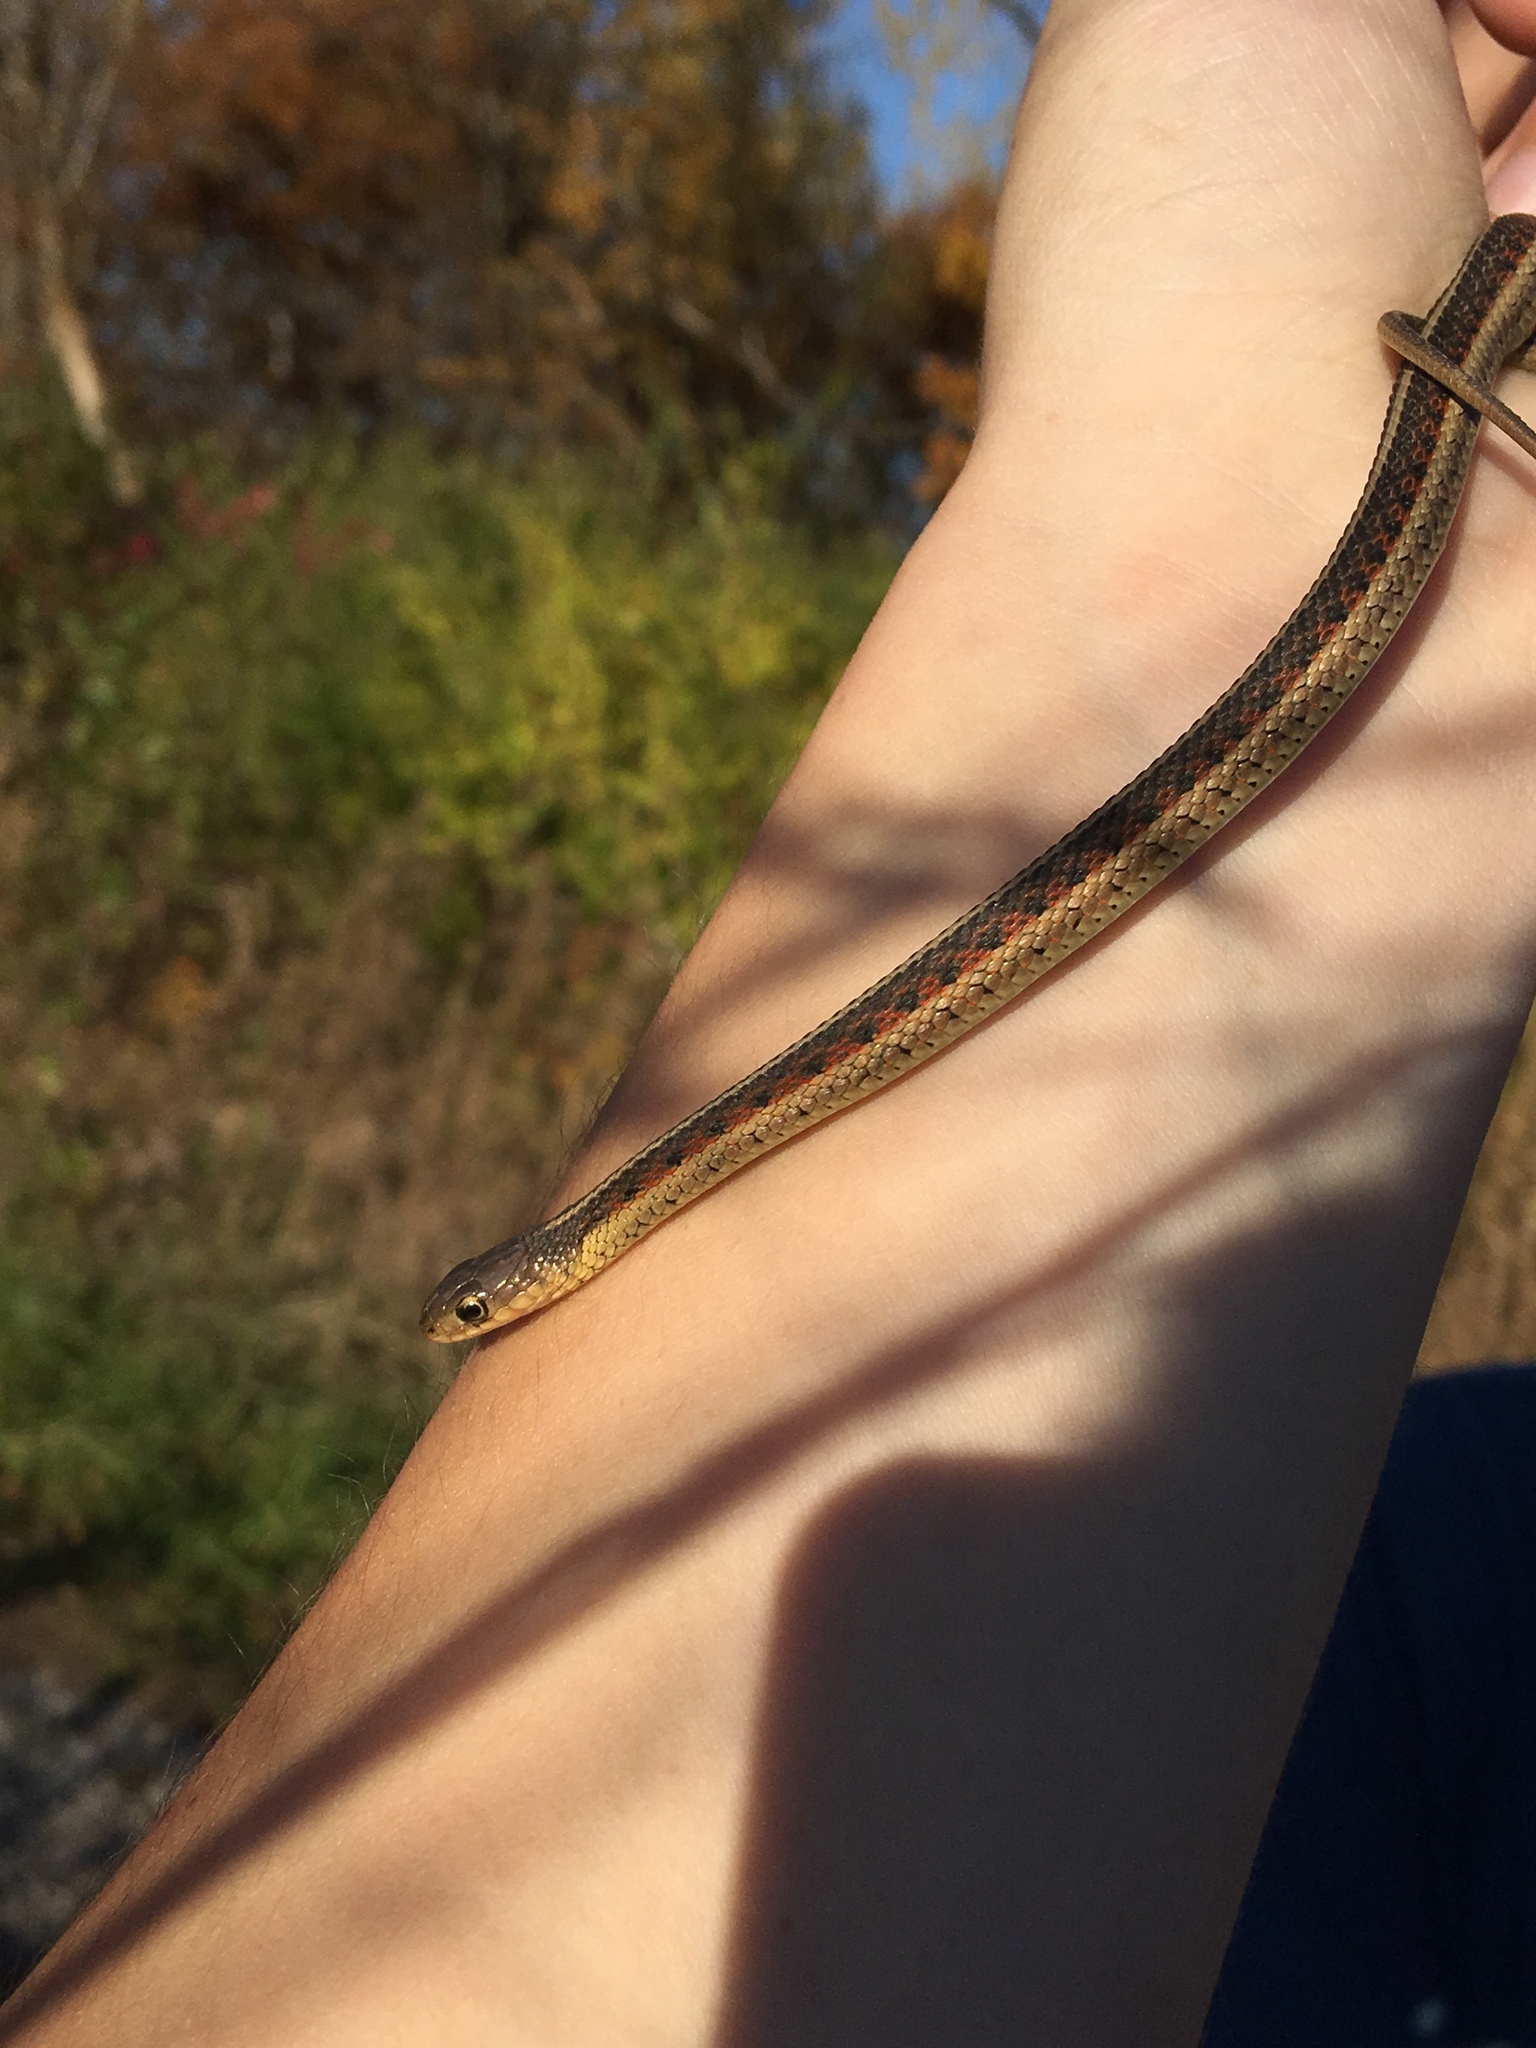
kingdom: Animalia
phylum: Chordata
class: Squamata
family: Colubridae
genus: Thamnophis
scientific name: Thamnophis sirtalis
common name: Common garter snake
